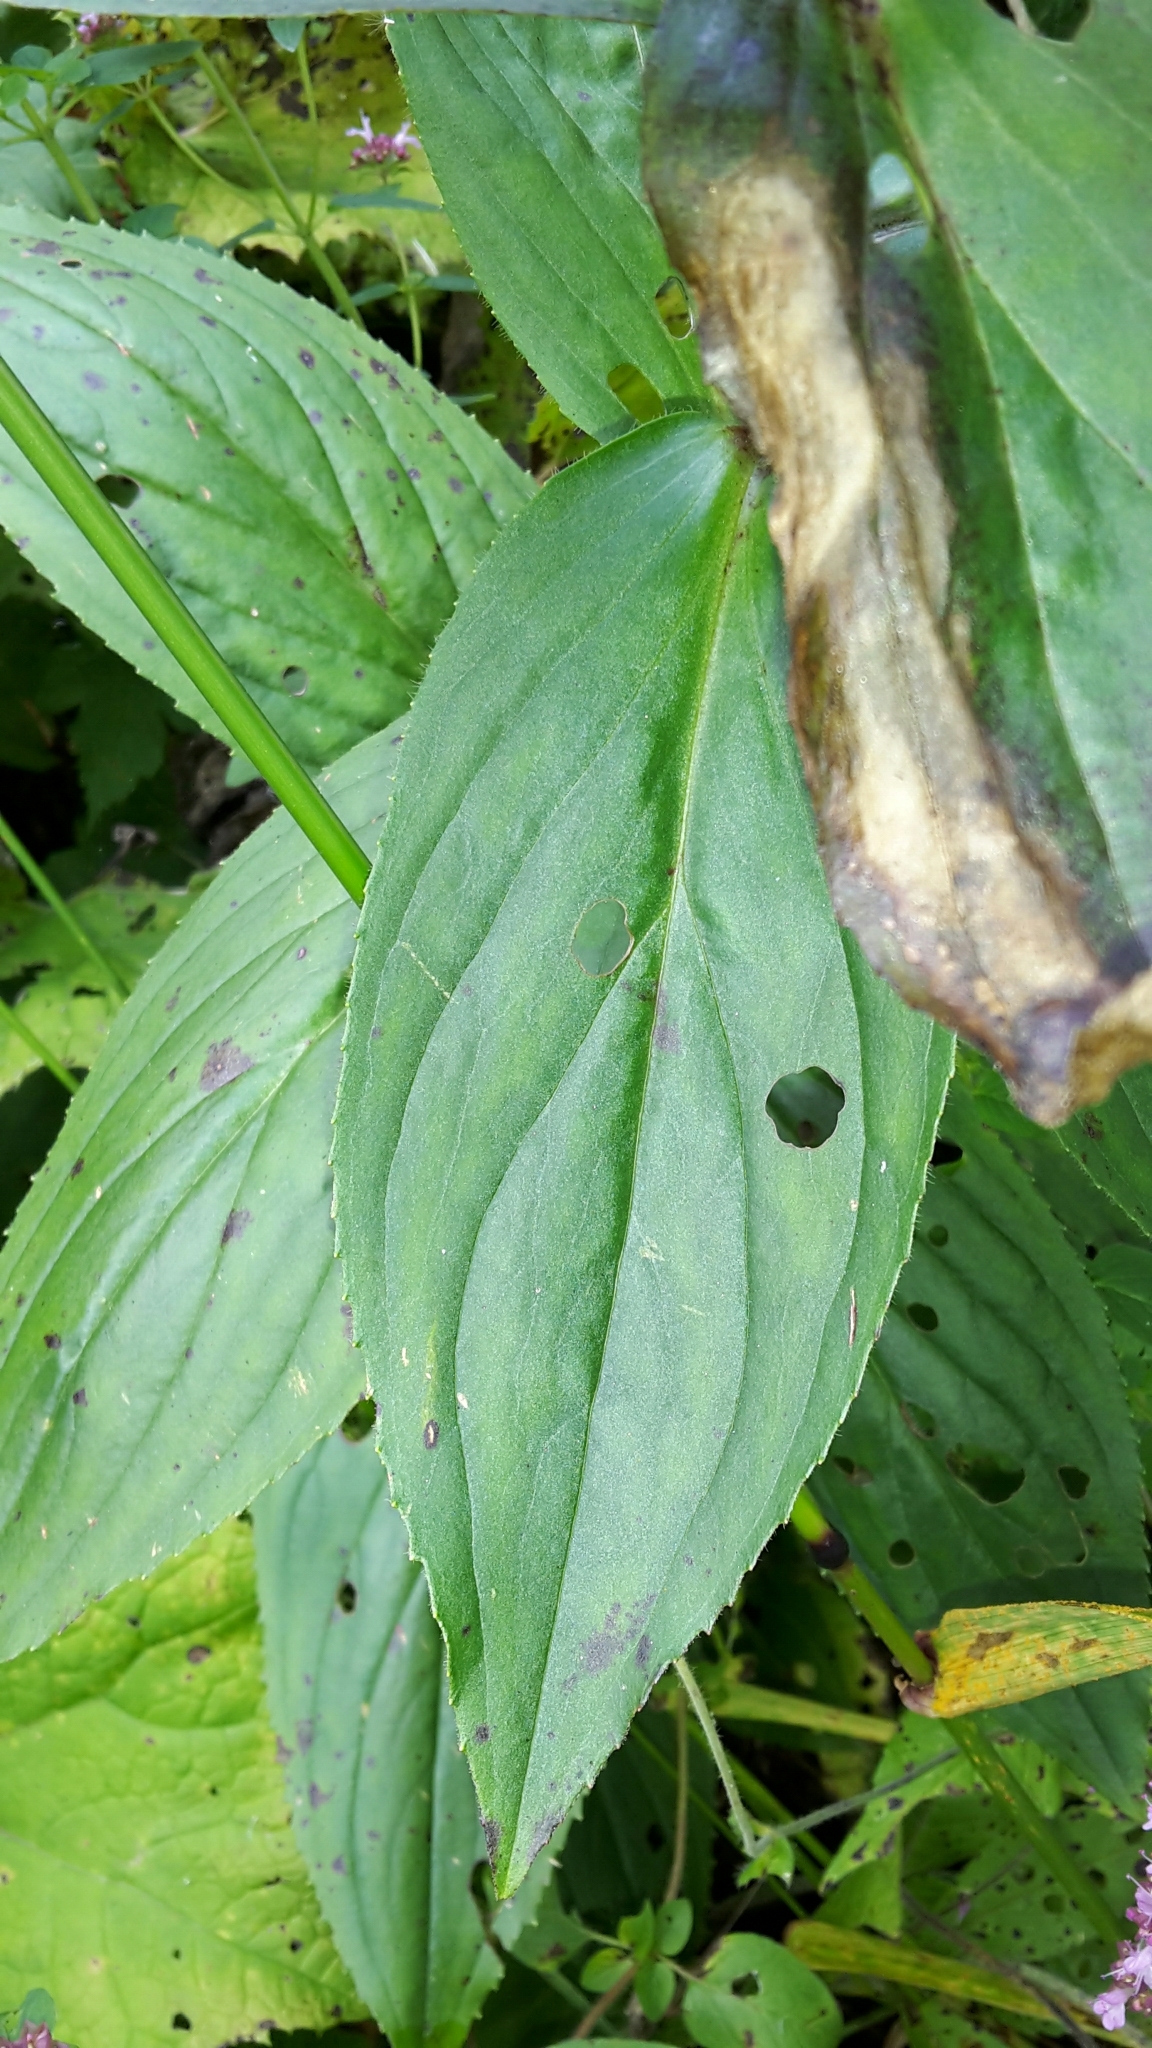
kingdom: Plantae
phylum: Tracheophyta
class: Magnoliopsida
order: Lamiales
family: Plantaginaceae
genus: Digitalis
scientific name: Digitalis grandiflora
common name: Yellow foxglove
